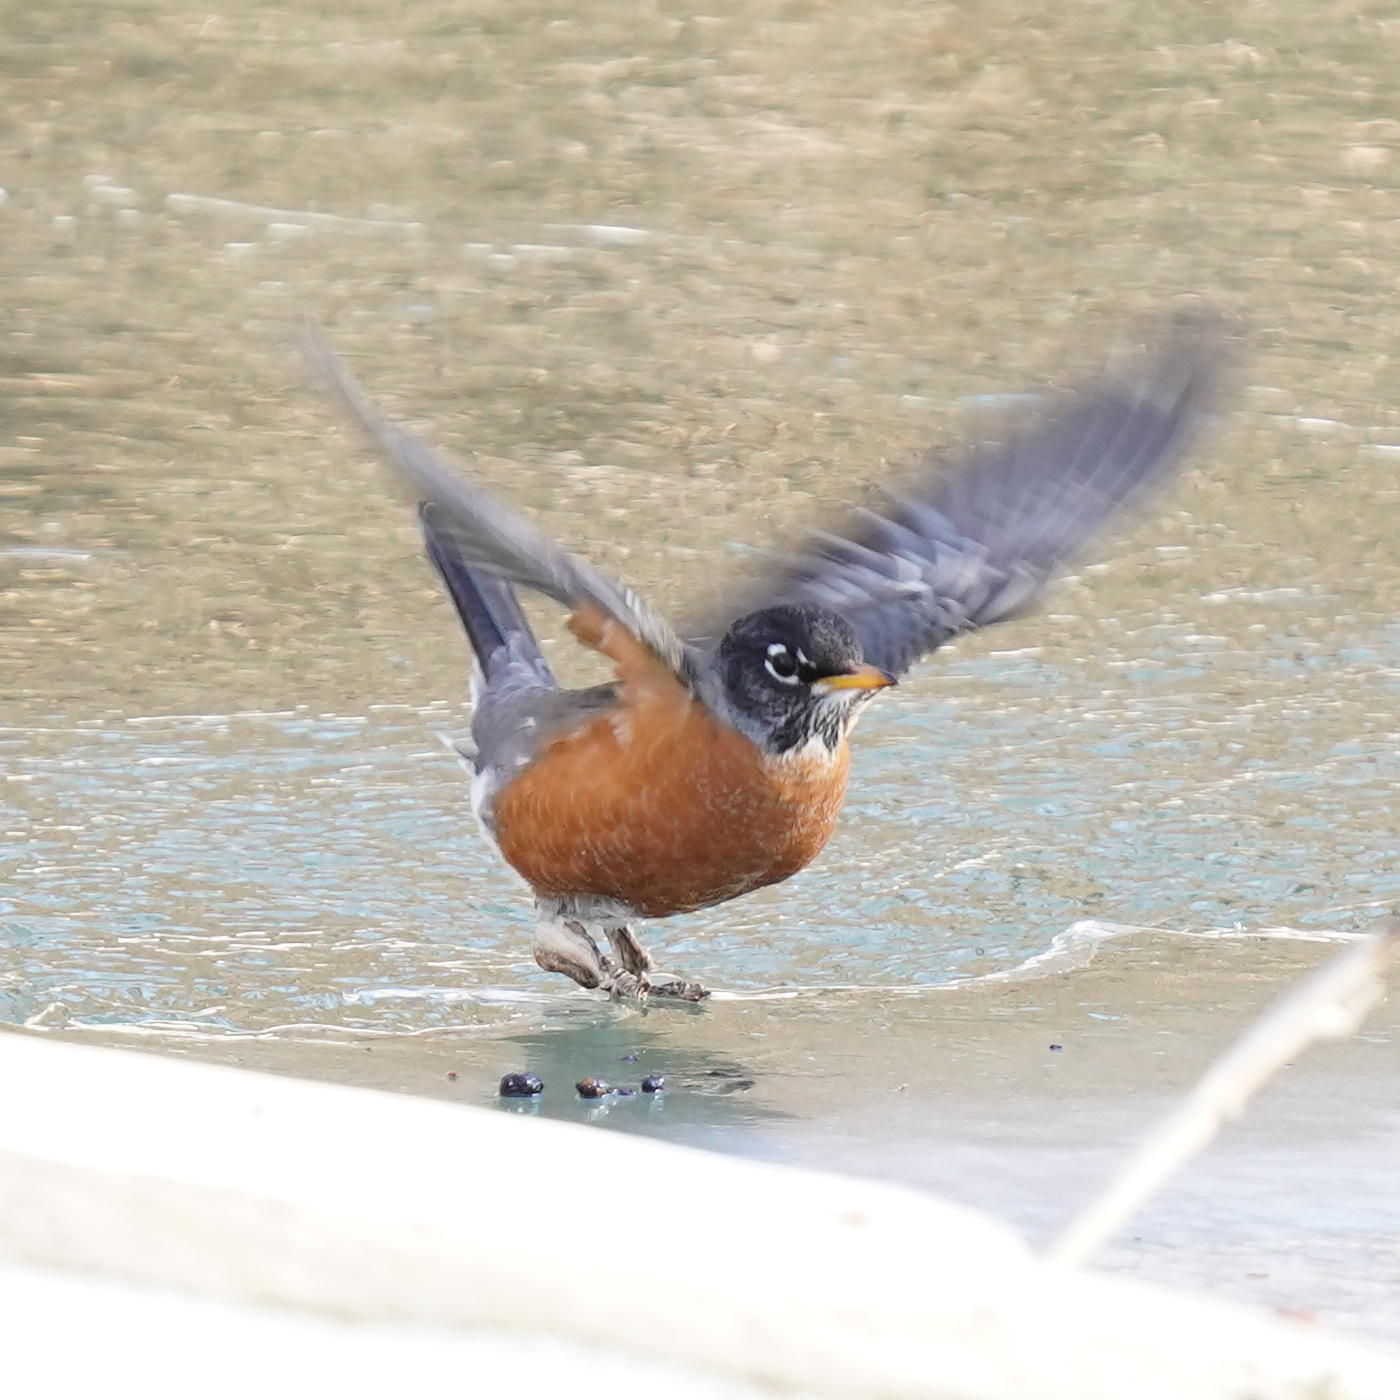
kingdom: Animalia
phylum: Chordata
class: Aves
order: Passeriformes
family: Turdidae
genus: Turdus
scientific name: Turdus migratorius
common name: American robin
